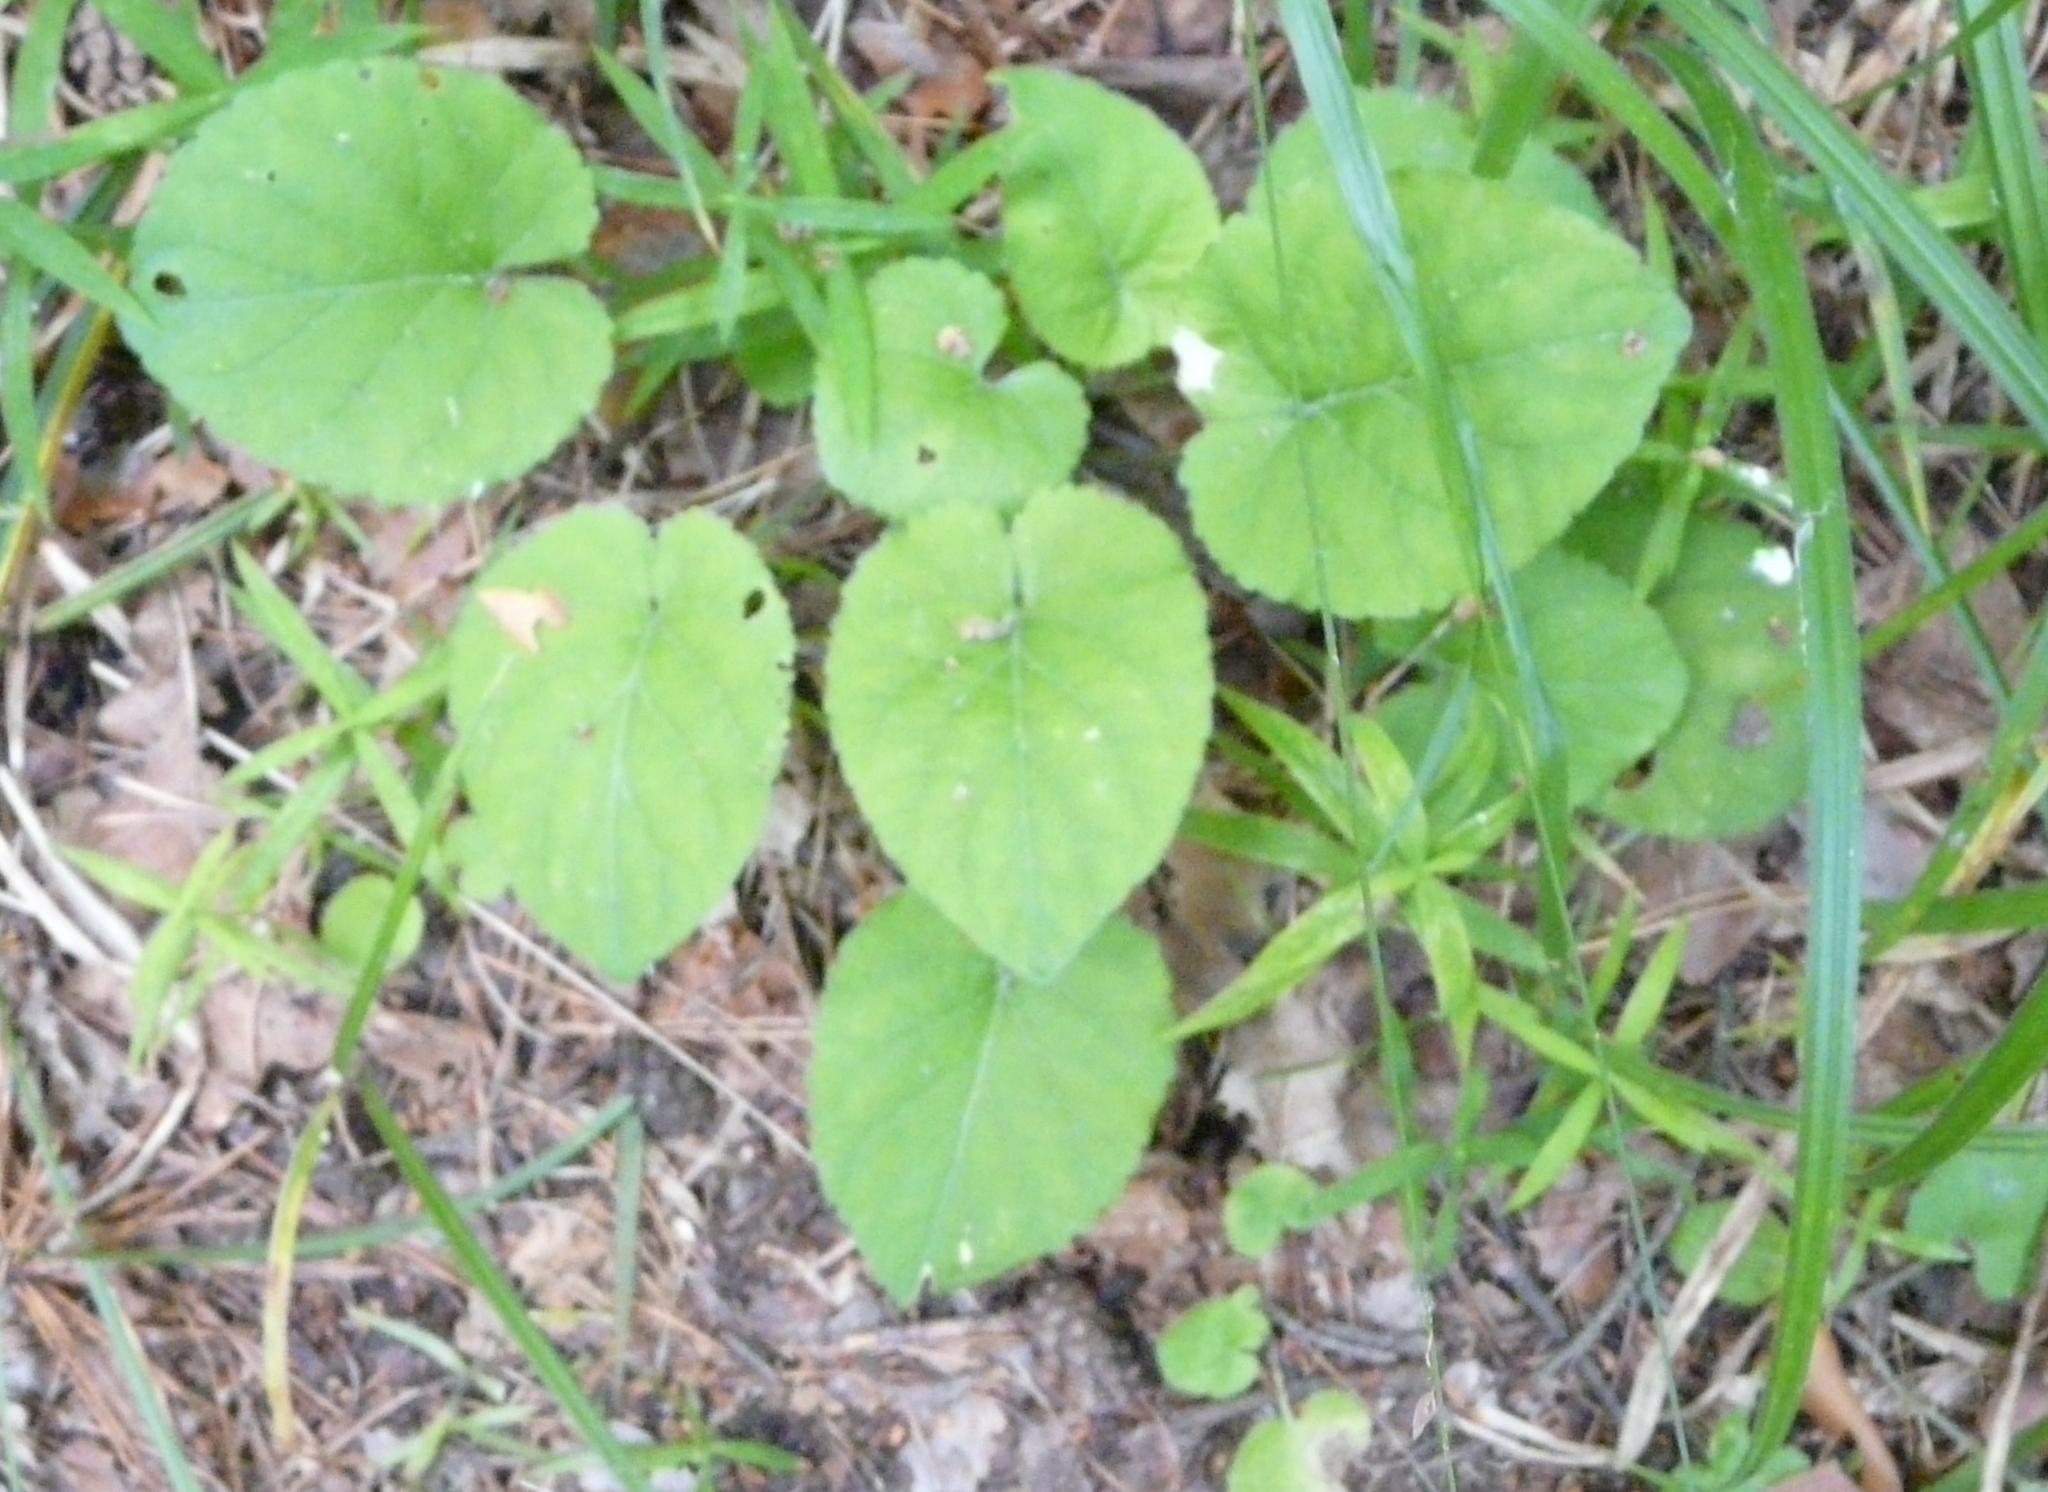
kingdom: Plantae
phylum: Tracheophyta
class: Magnoliopsida
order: Malpighiales
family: Violaceae
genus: Viola
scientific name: Viola collina
